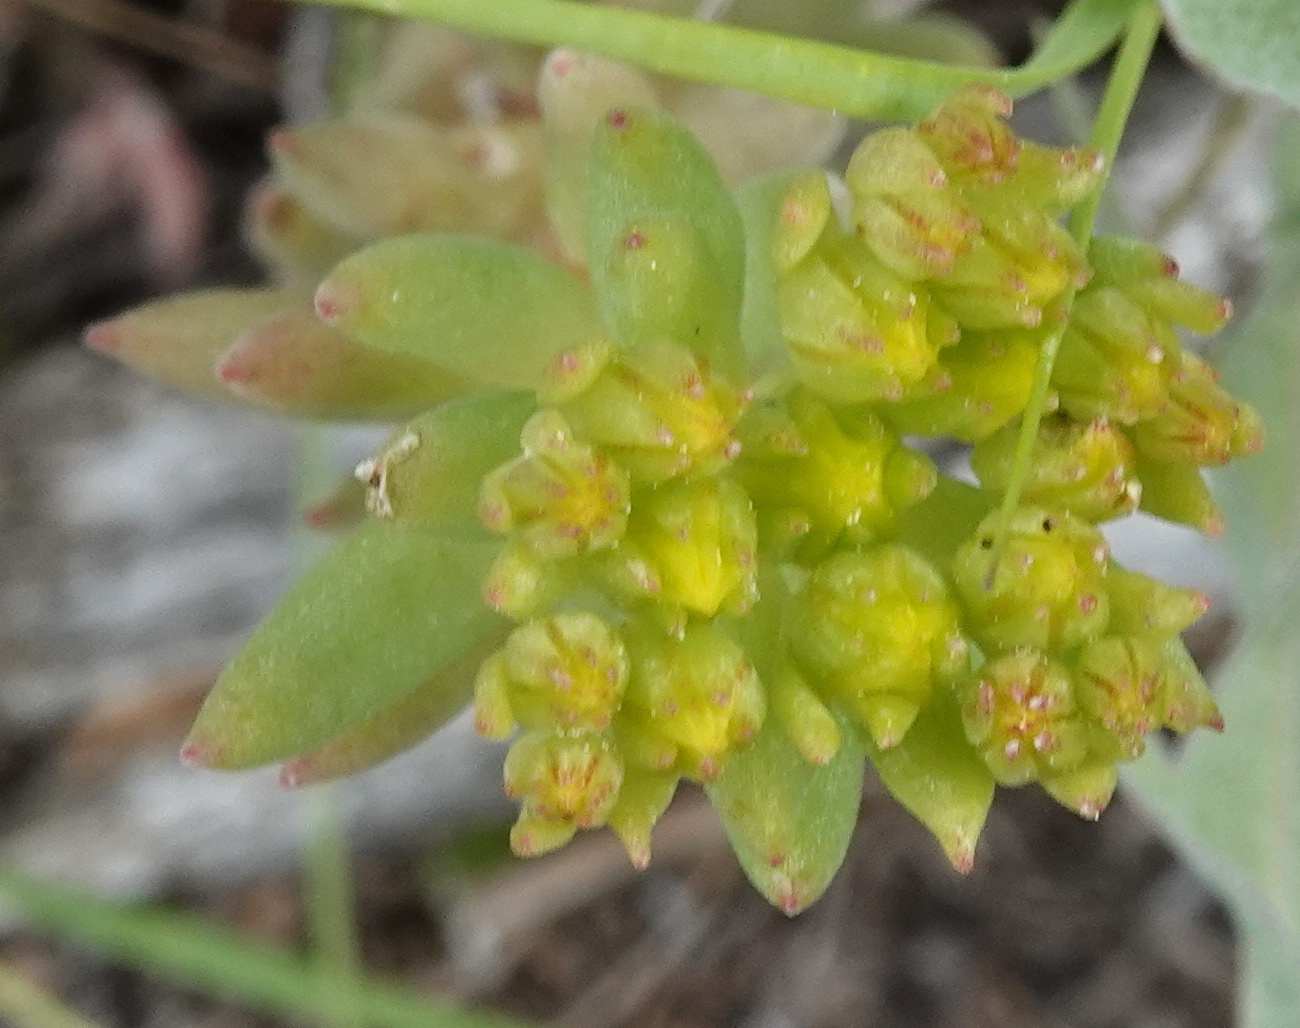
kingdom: Plantae
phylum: Tracheophyta
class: Magnoliopsida
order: Saxifragales
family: Crassulaceae
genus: Sedum
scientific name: Sedum lanceolatum
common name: Common stonecrop
